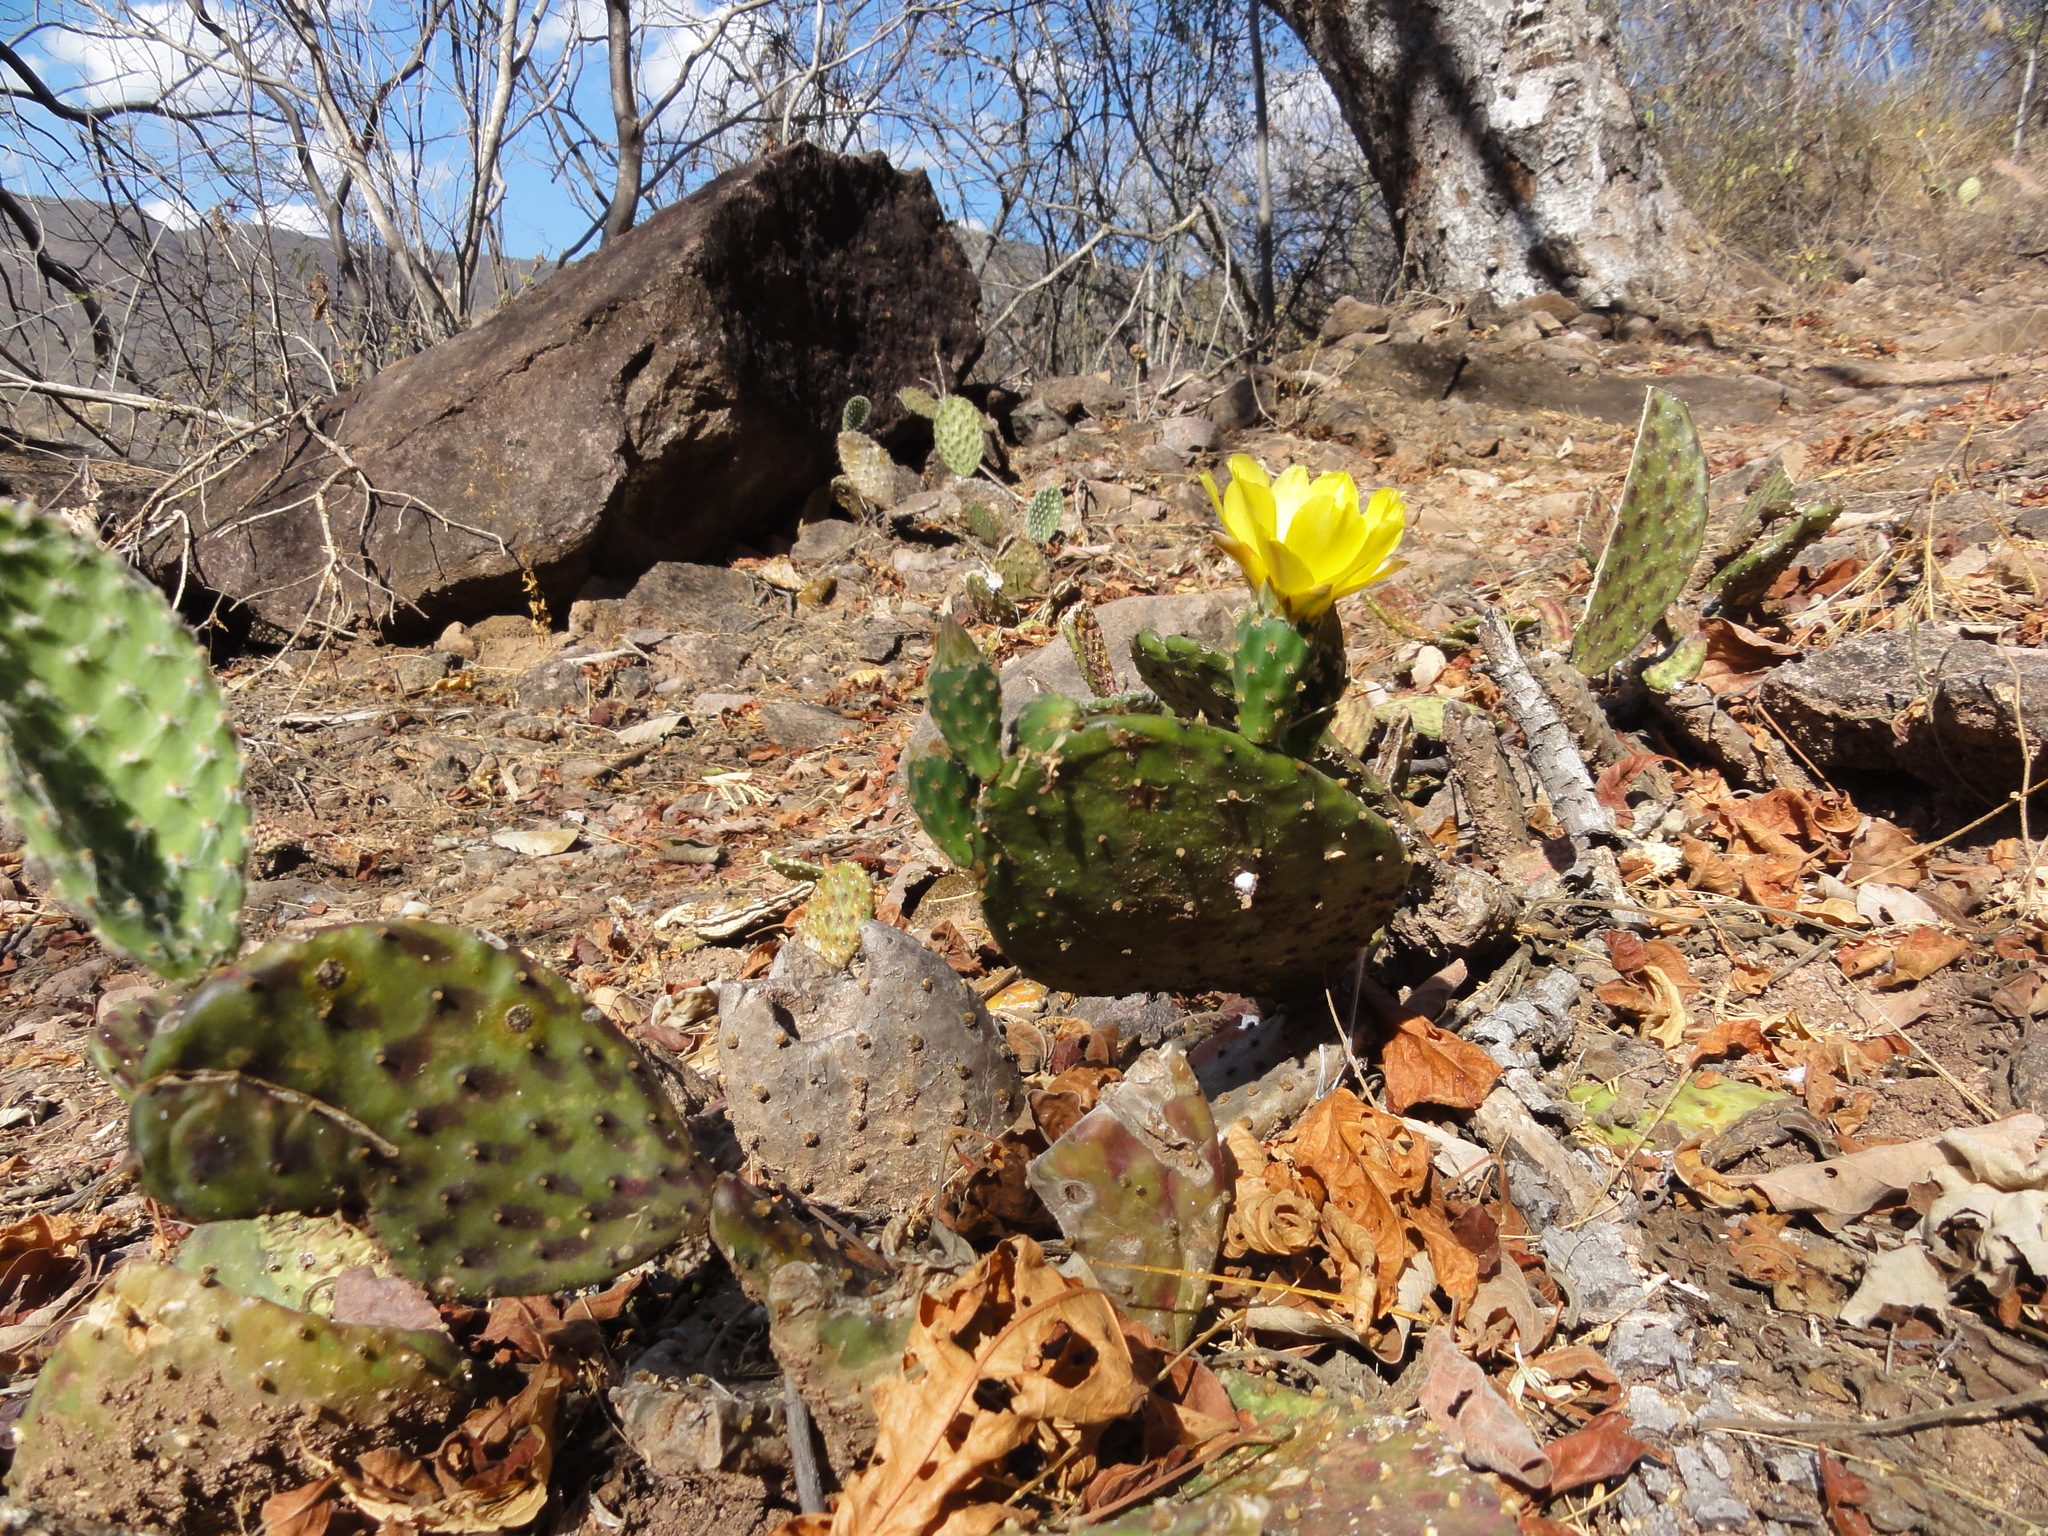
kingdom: Plantae
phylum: Tracheophyta
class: Magnoliopsida
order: Caryophyllales
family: Cactaceae
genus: Opuntia
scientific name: Opuntia decumbens
